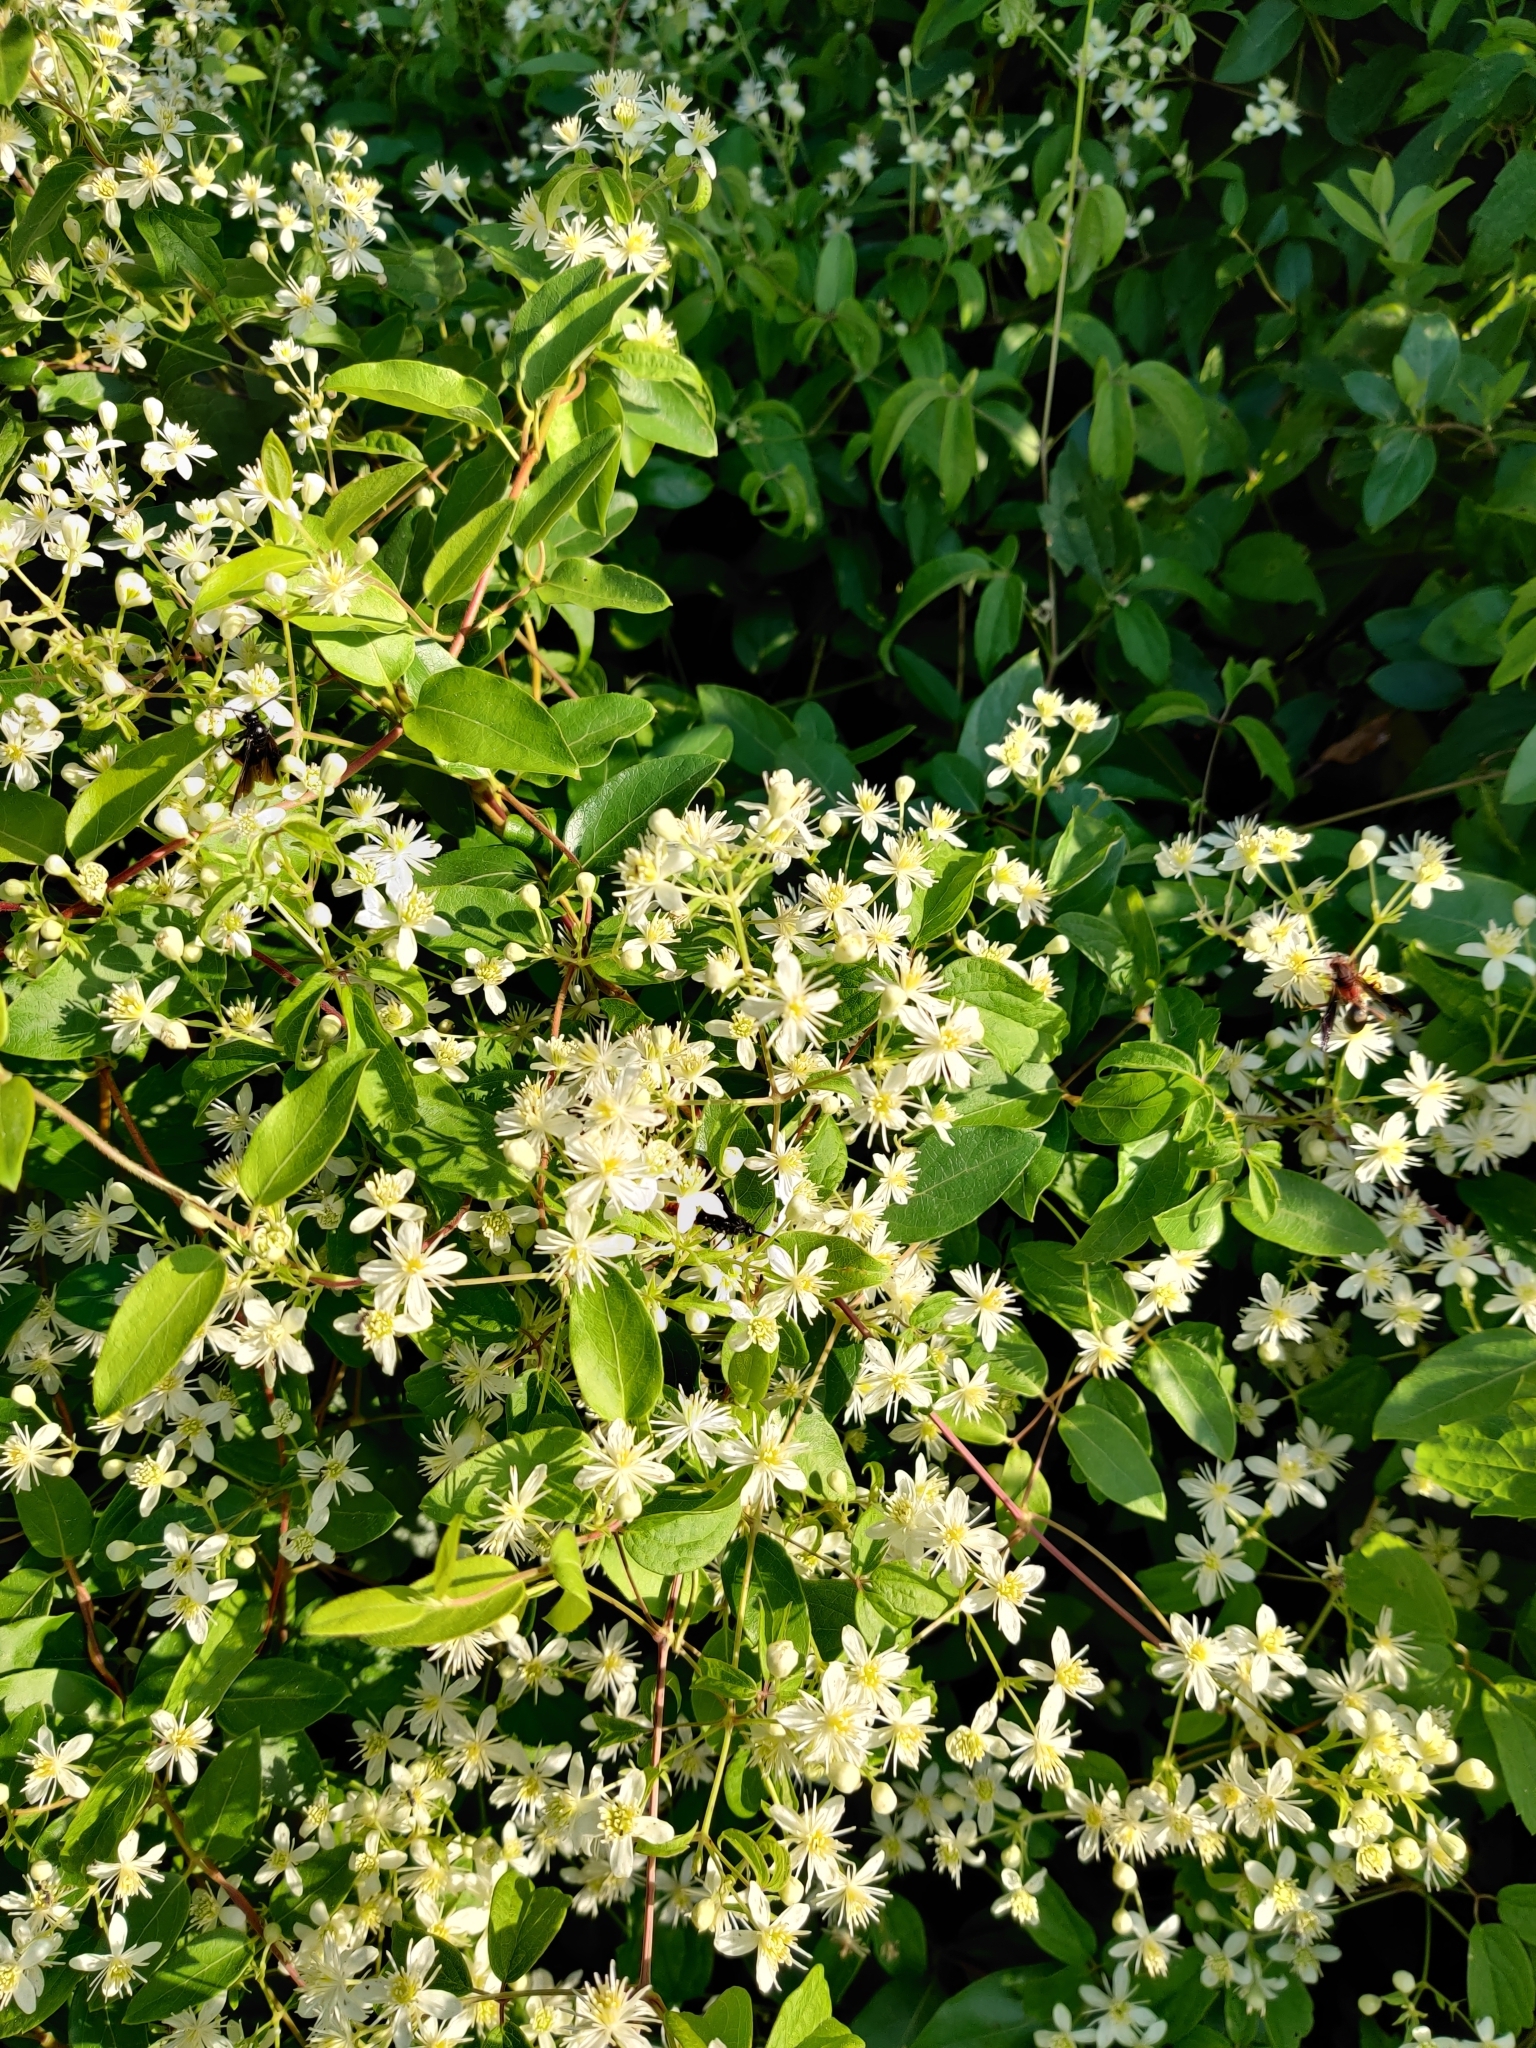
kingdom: Plantae
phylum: Tracheophyta
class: Magnoliopsida
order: Ranunculales
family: Ranunculaceae
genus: Clematis
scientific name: Clematis terniflora
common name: Sweet autumn clematis
